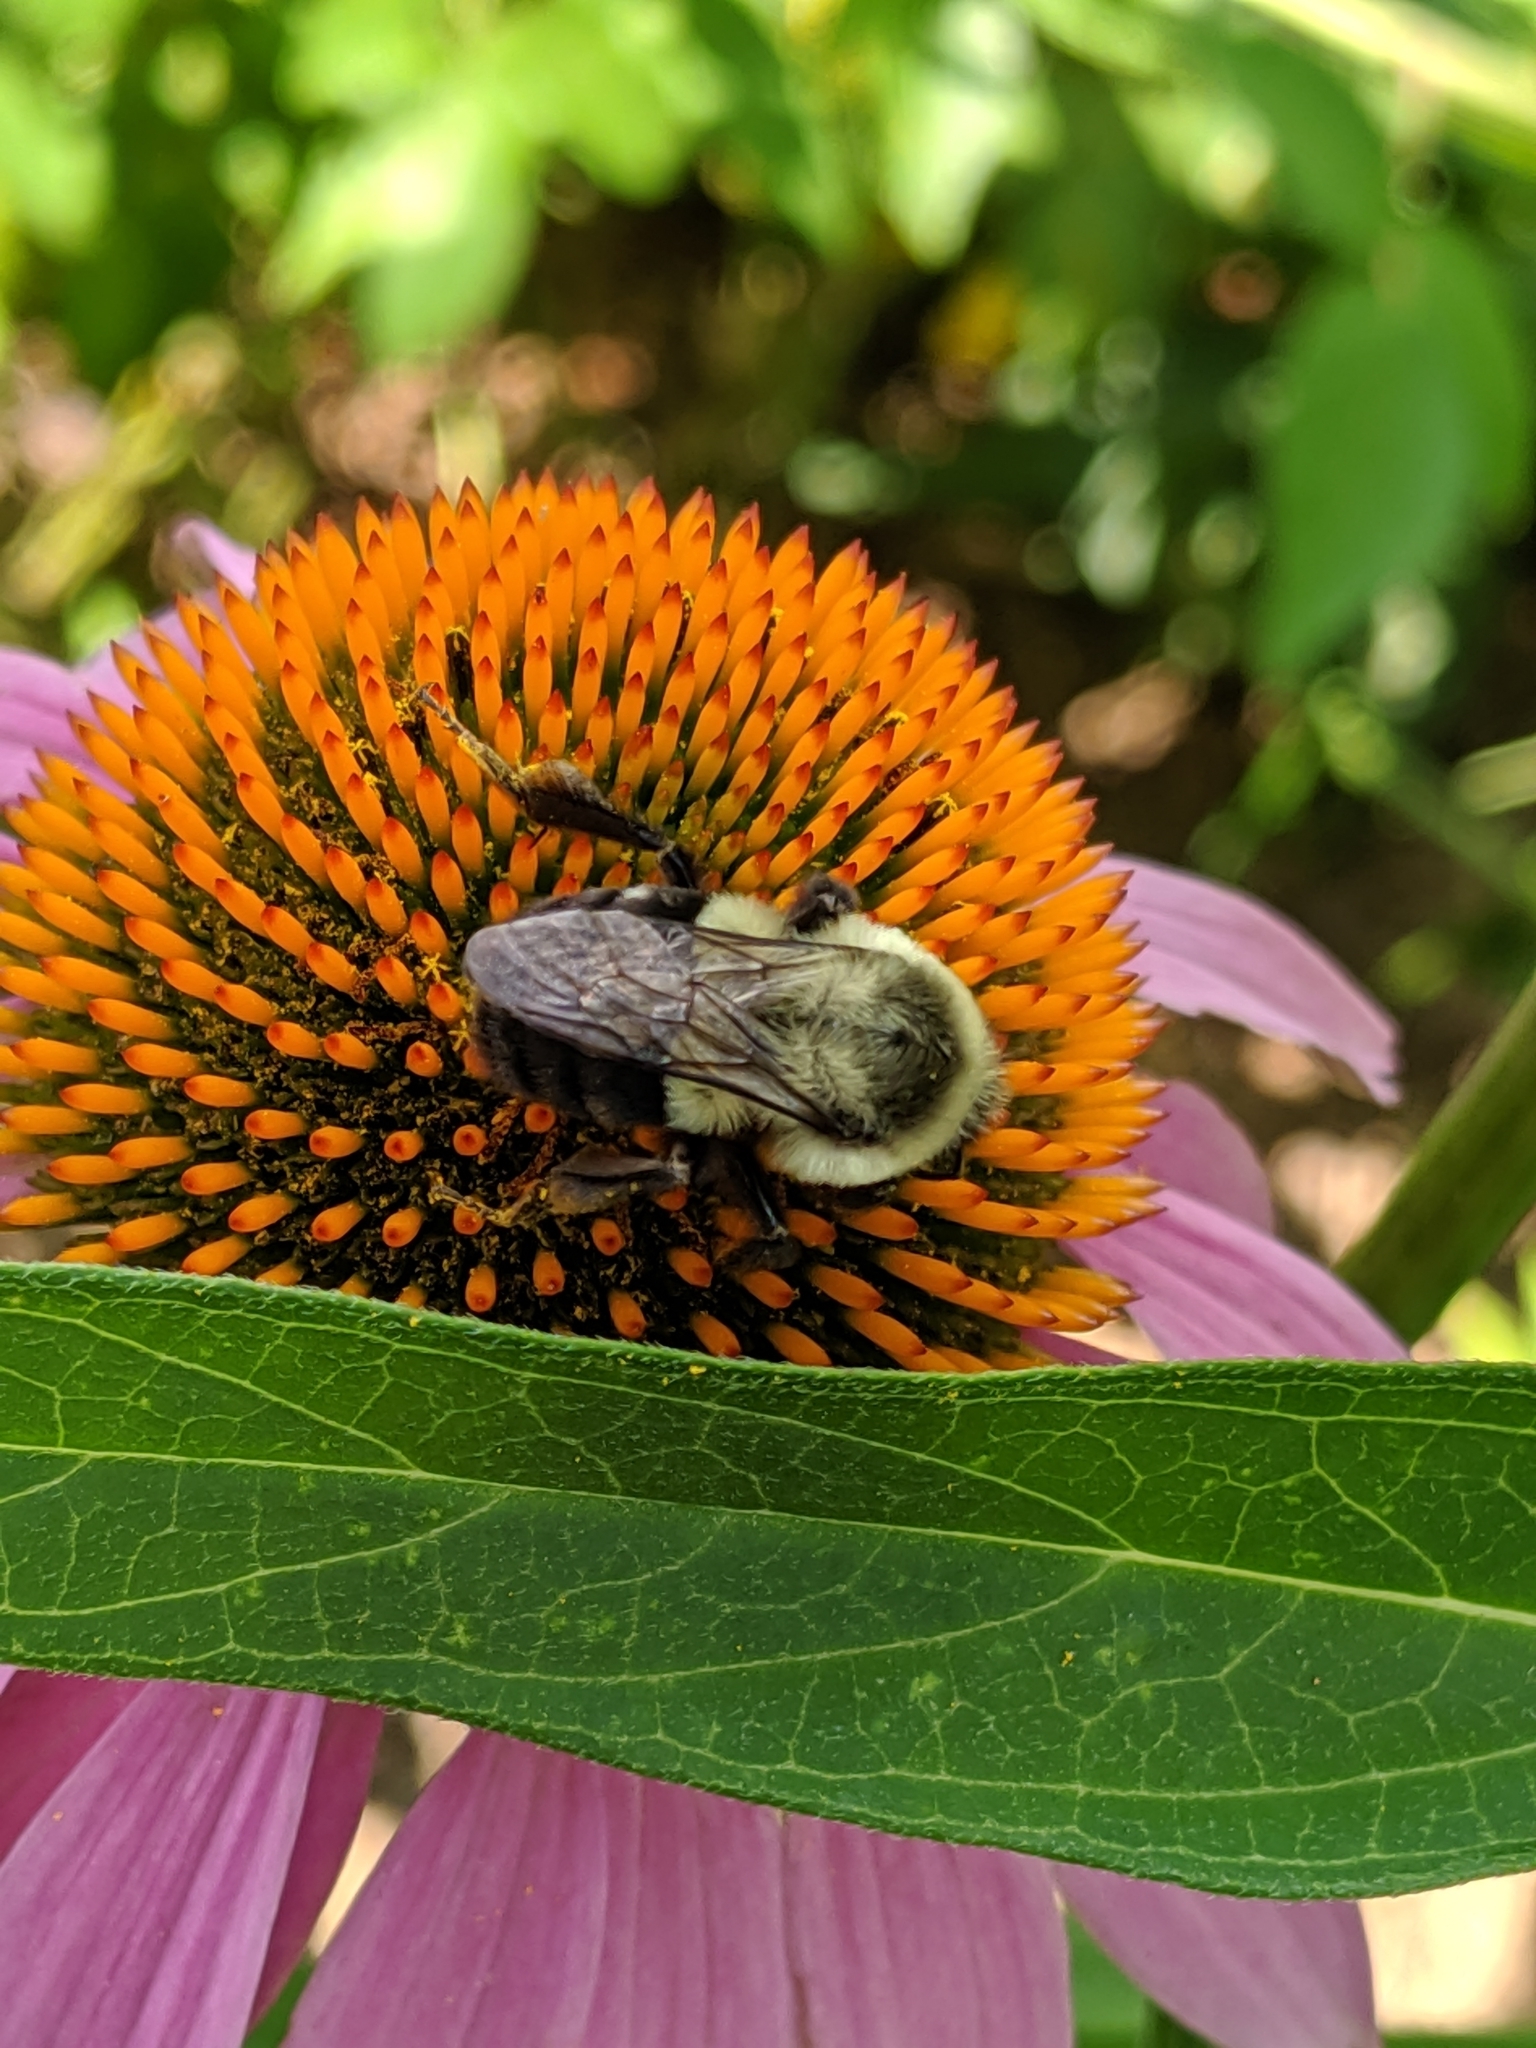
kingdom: Animalia
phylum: Arthropoda
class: Insecta
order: Hymenoptera
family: Apidae
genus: Bombus
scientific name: Bombus impatiens
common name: Common eastern bumble bee
